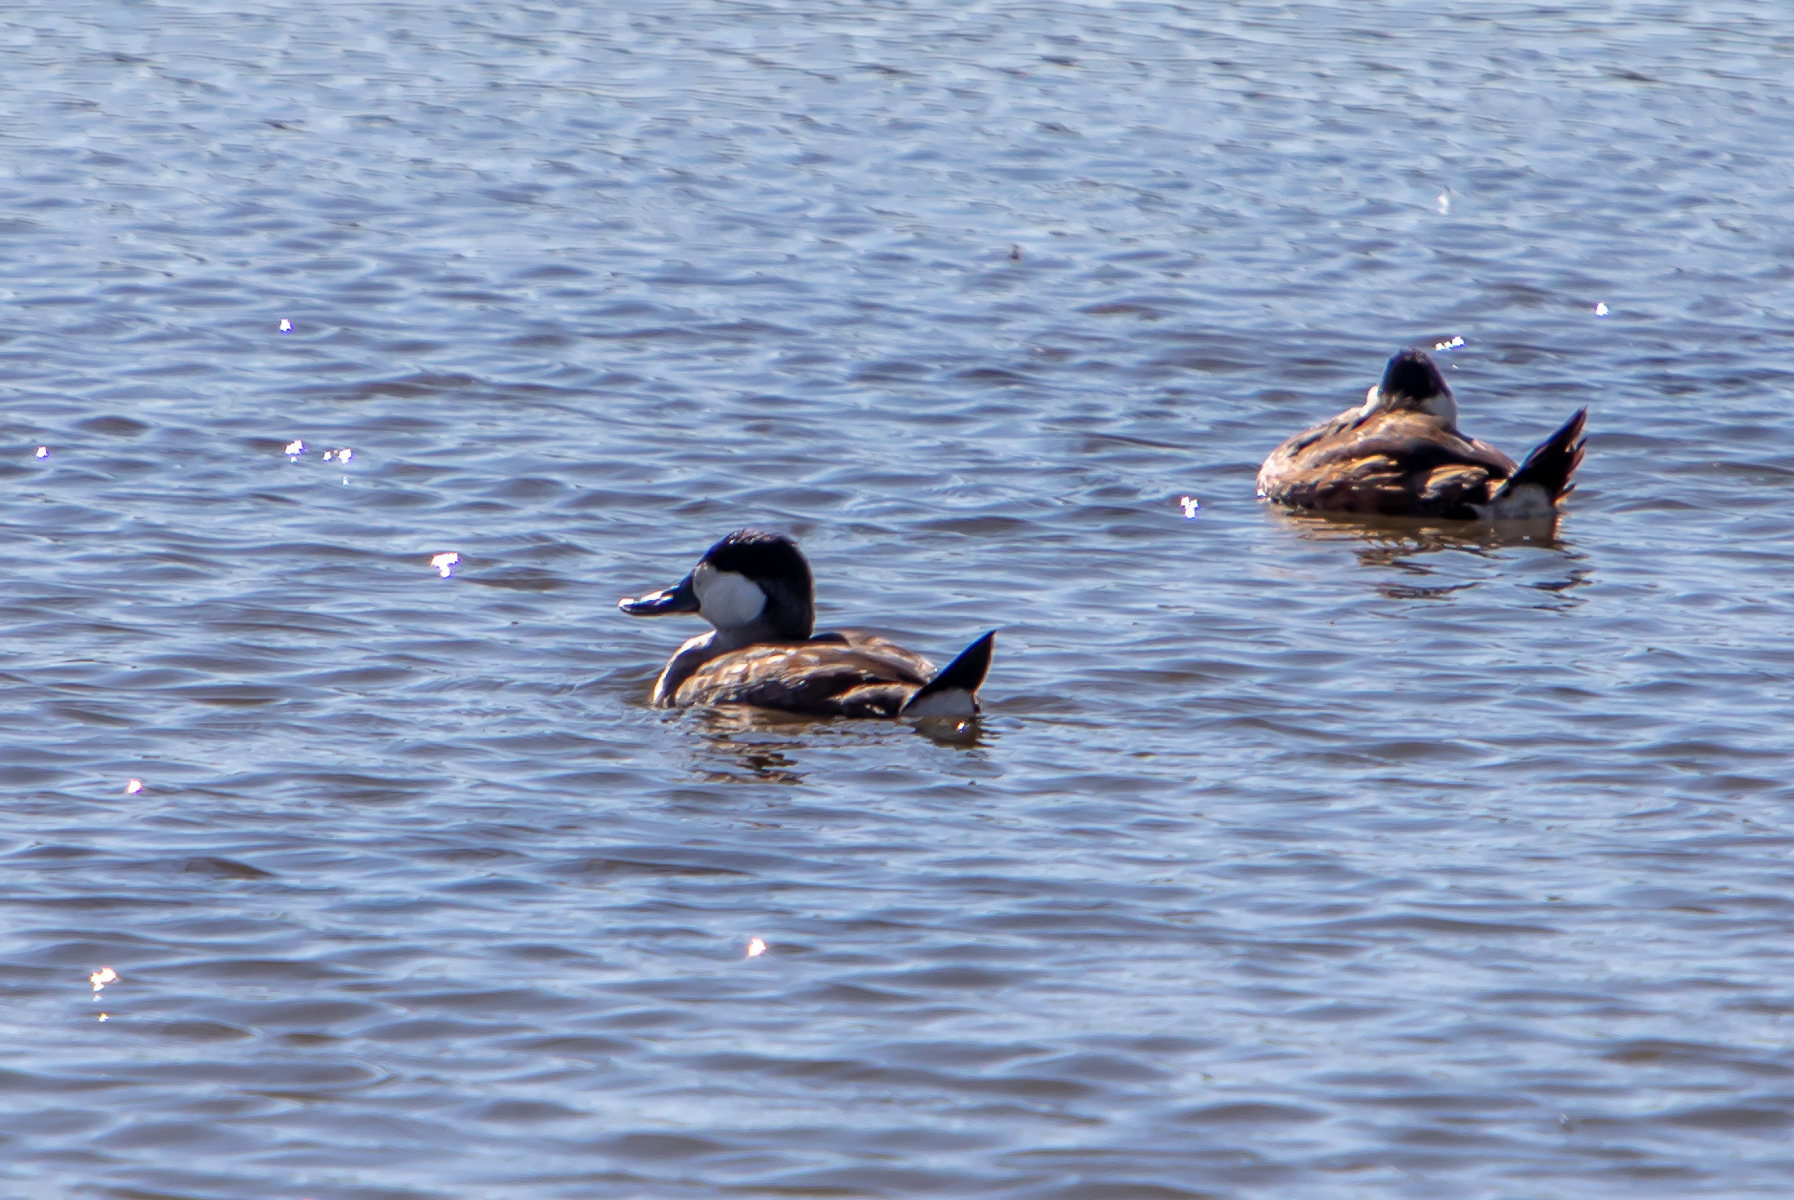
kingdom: Animalia
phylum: Chordata
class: Aves
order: Anseriformes
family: Anatidae
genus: Oxyura
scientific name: Oxyura jamaicensis
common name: Ruddy duck
